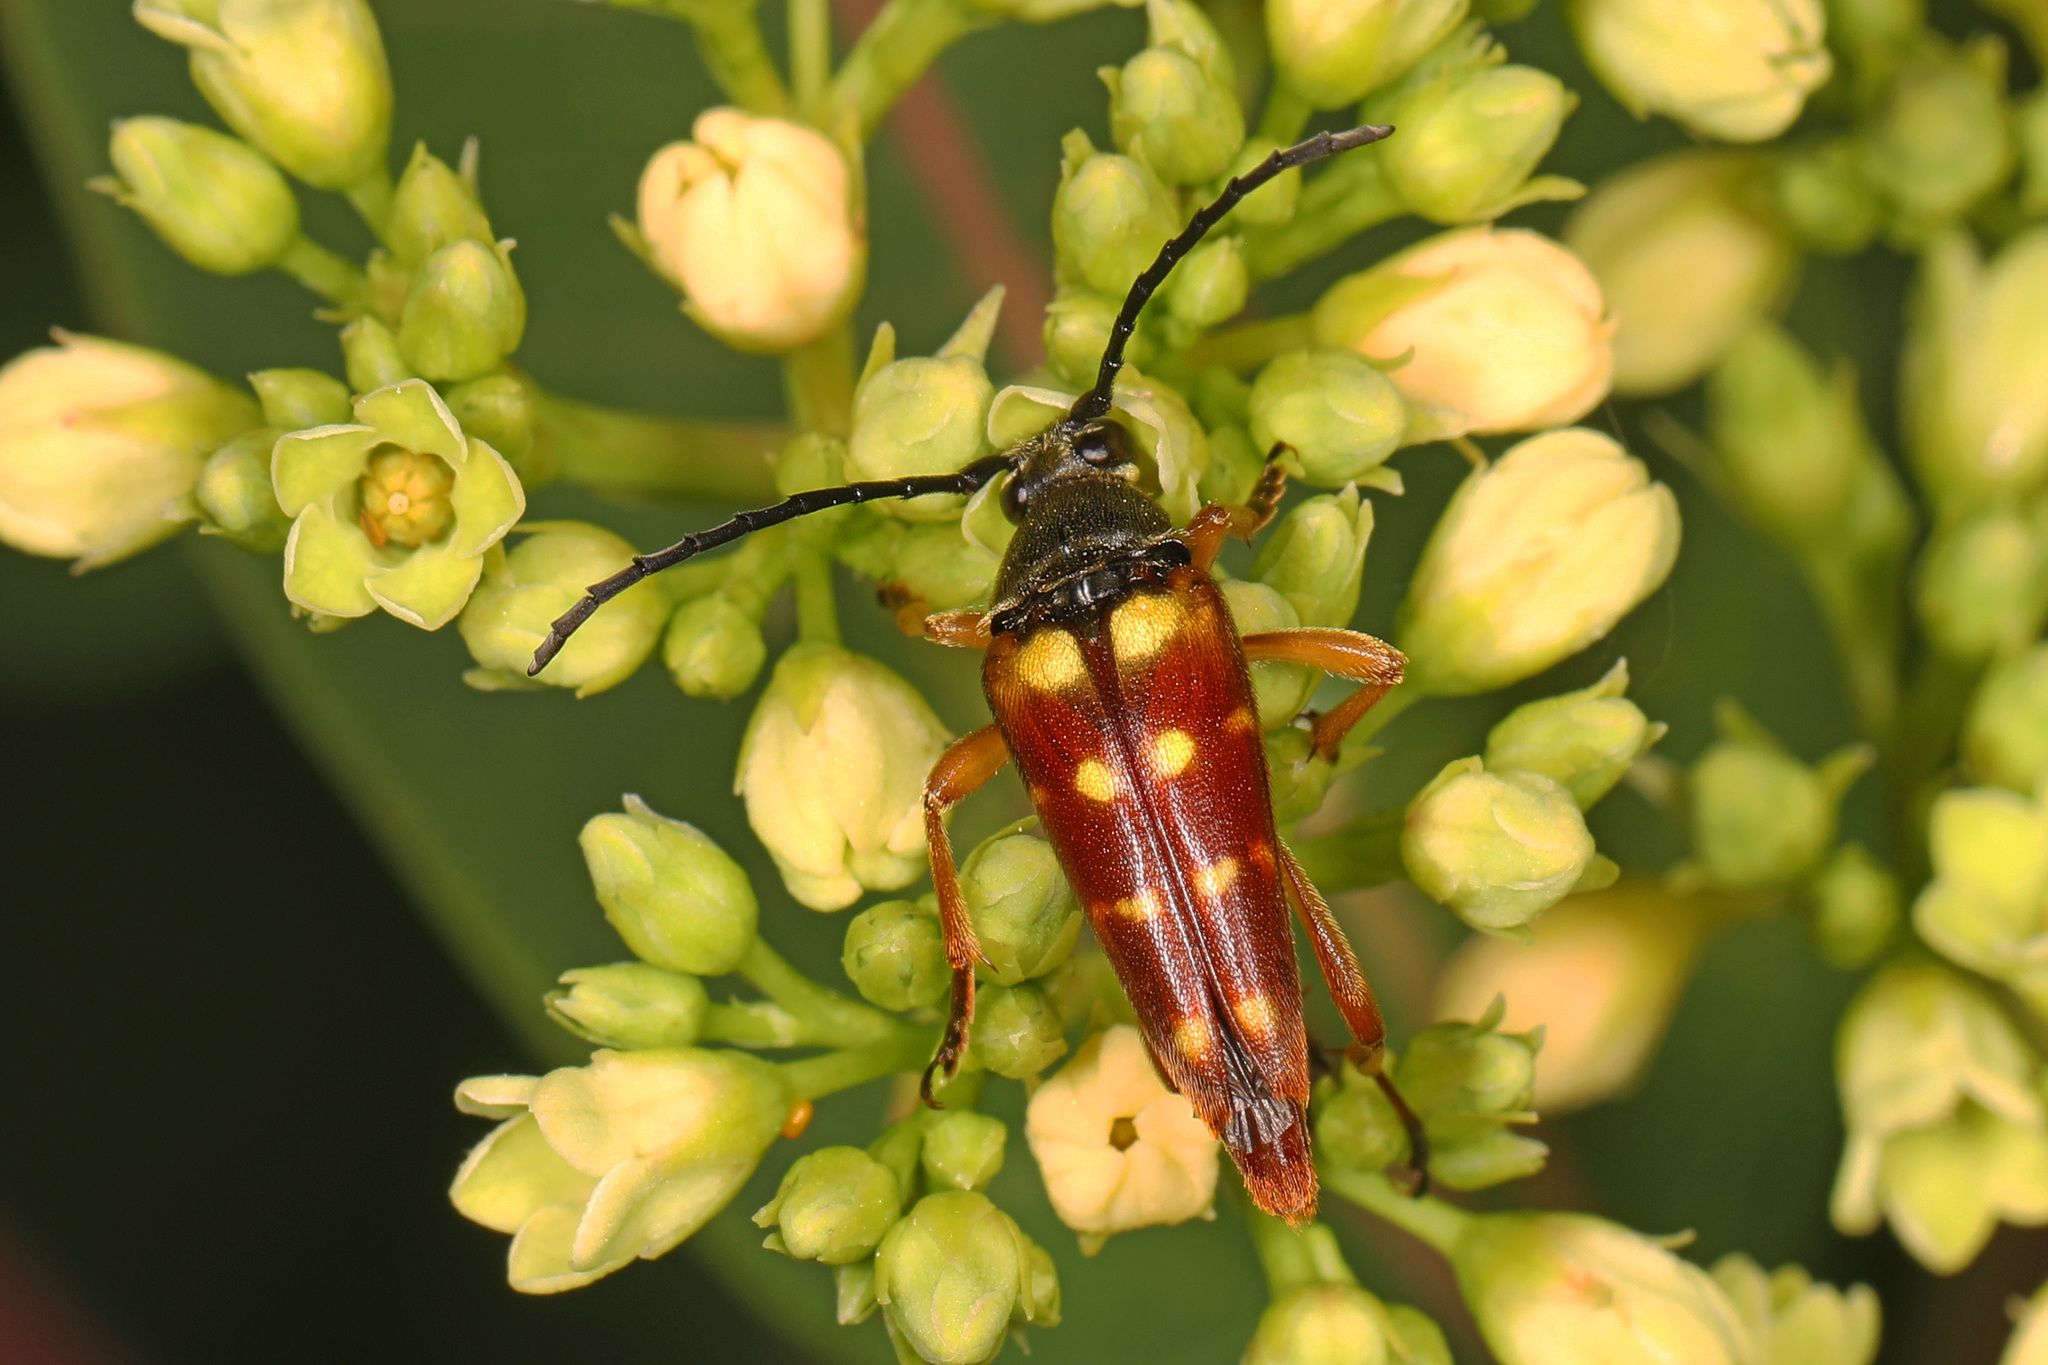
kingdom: Animalia
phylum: Arthropoda
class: Insecta
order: Coleoptera
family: Cerambycidae
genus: Typocerus
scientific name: Typocerus velutinus
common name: Banded longhorn beetle
